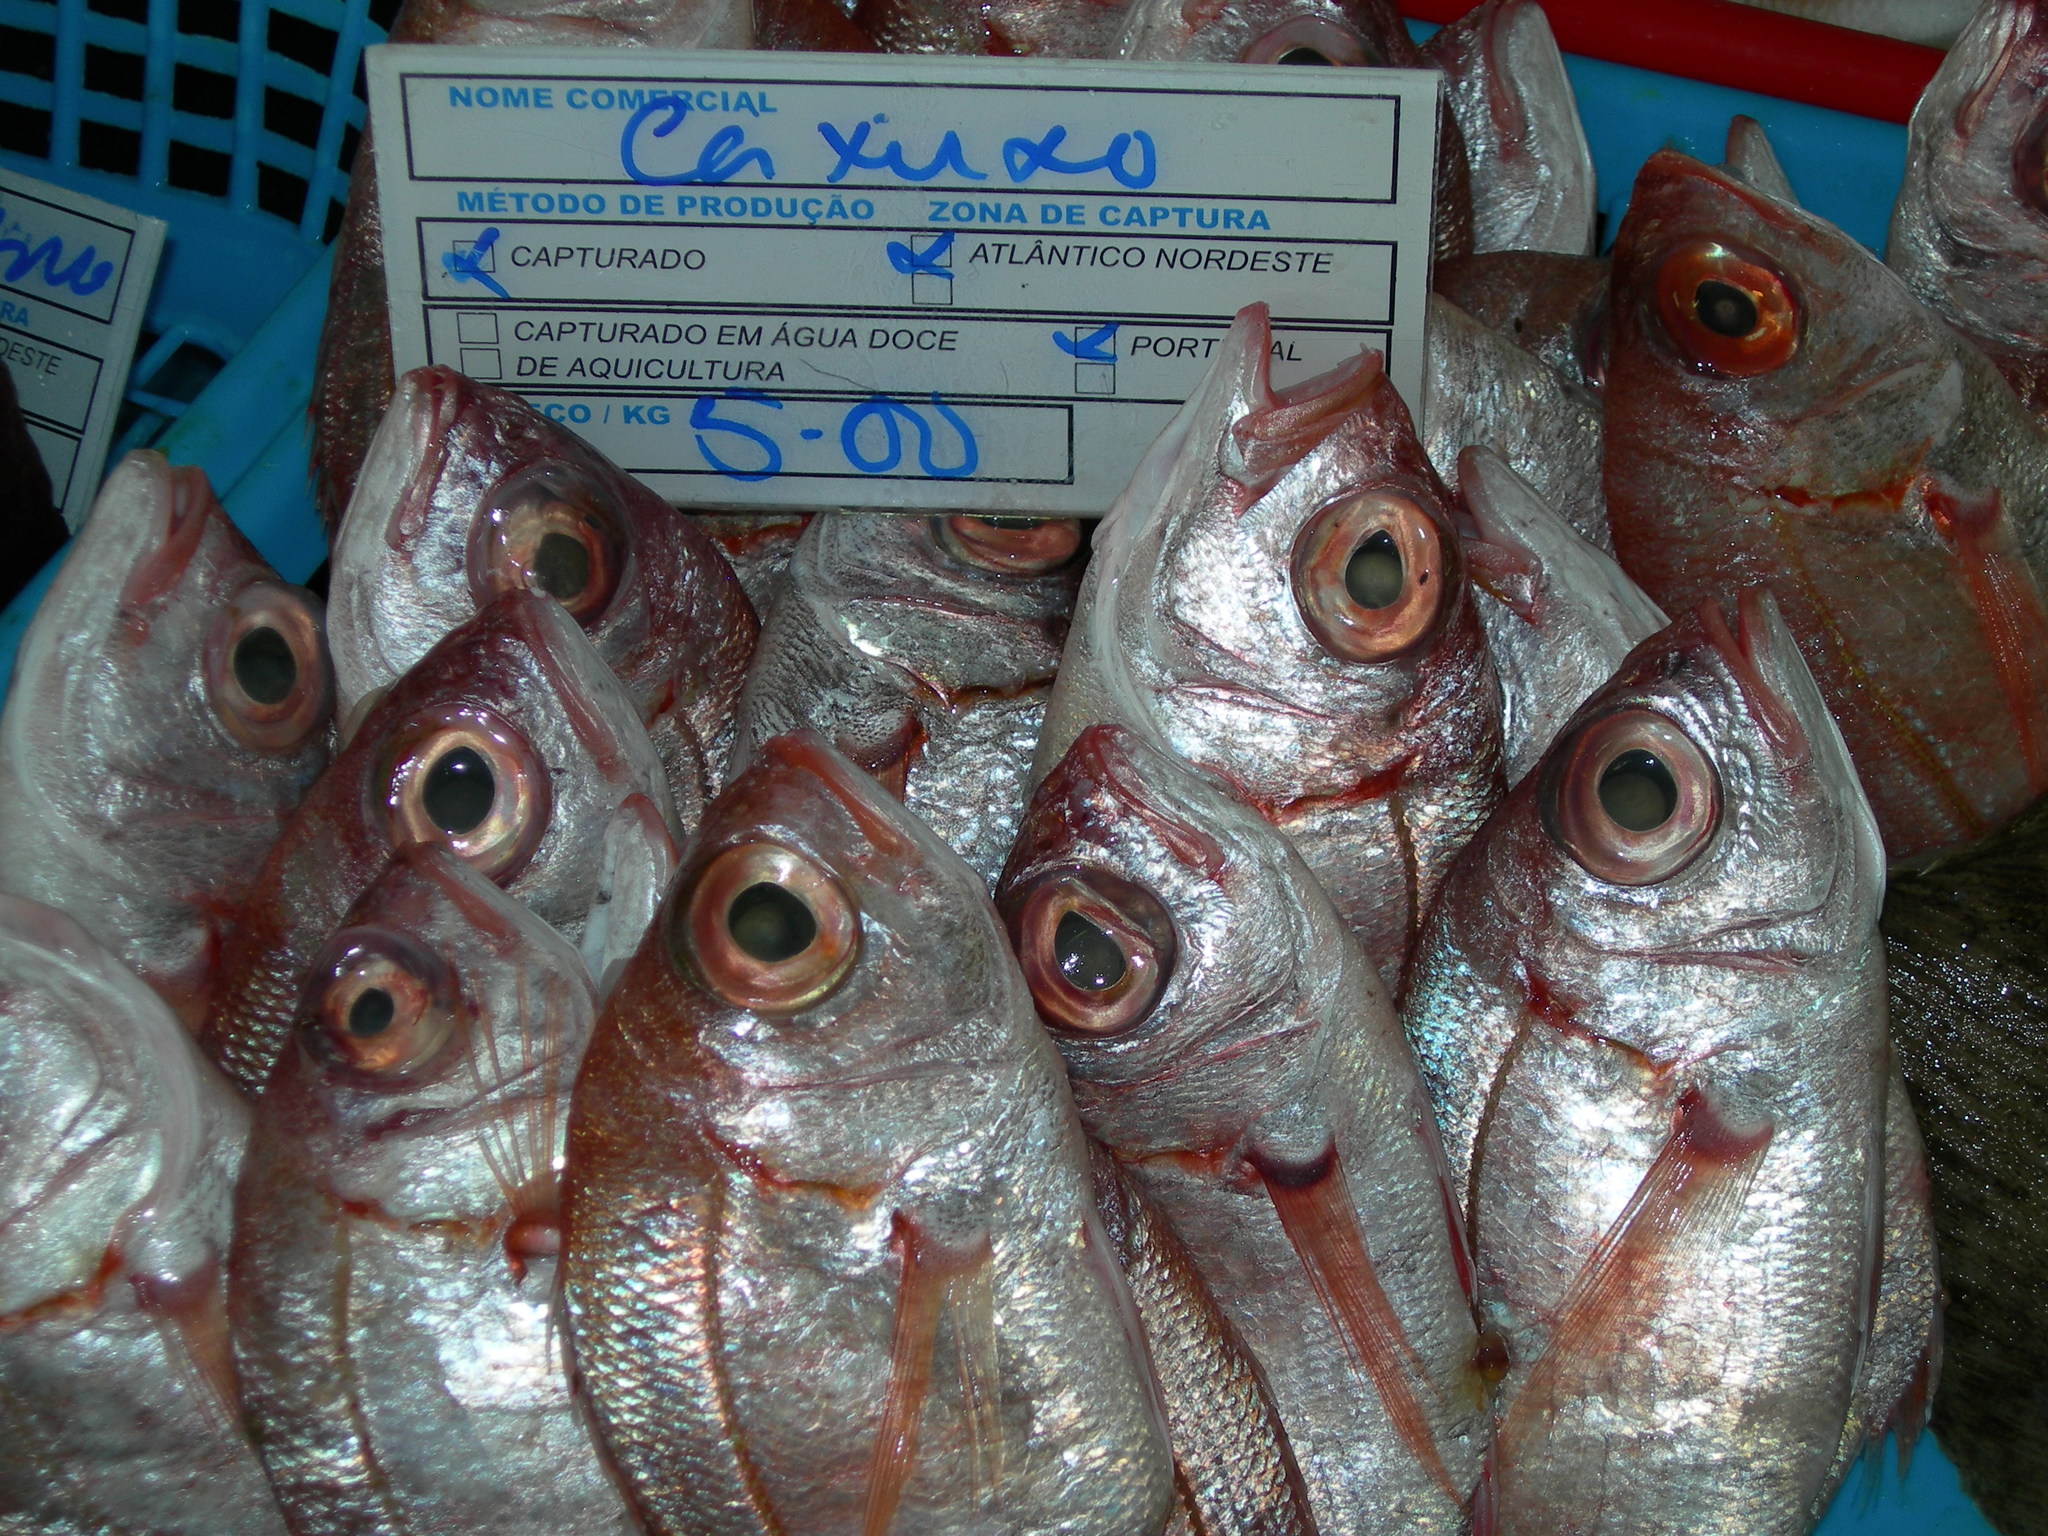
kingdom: Animalia
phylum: Chordata
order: Perciformes
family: Sparidae
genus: Dentex
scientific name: Dentex macrophthalmus
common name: Large-eyed dentex
